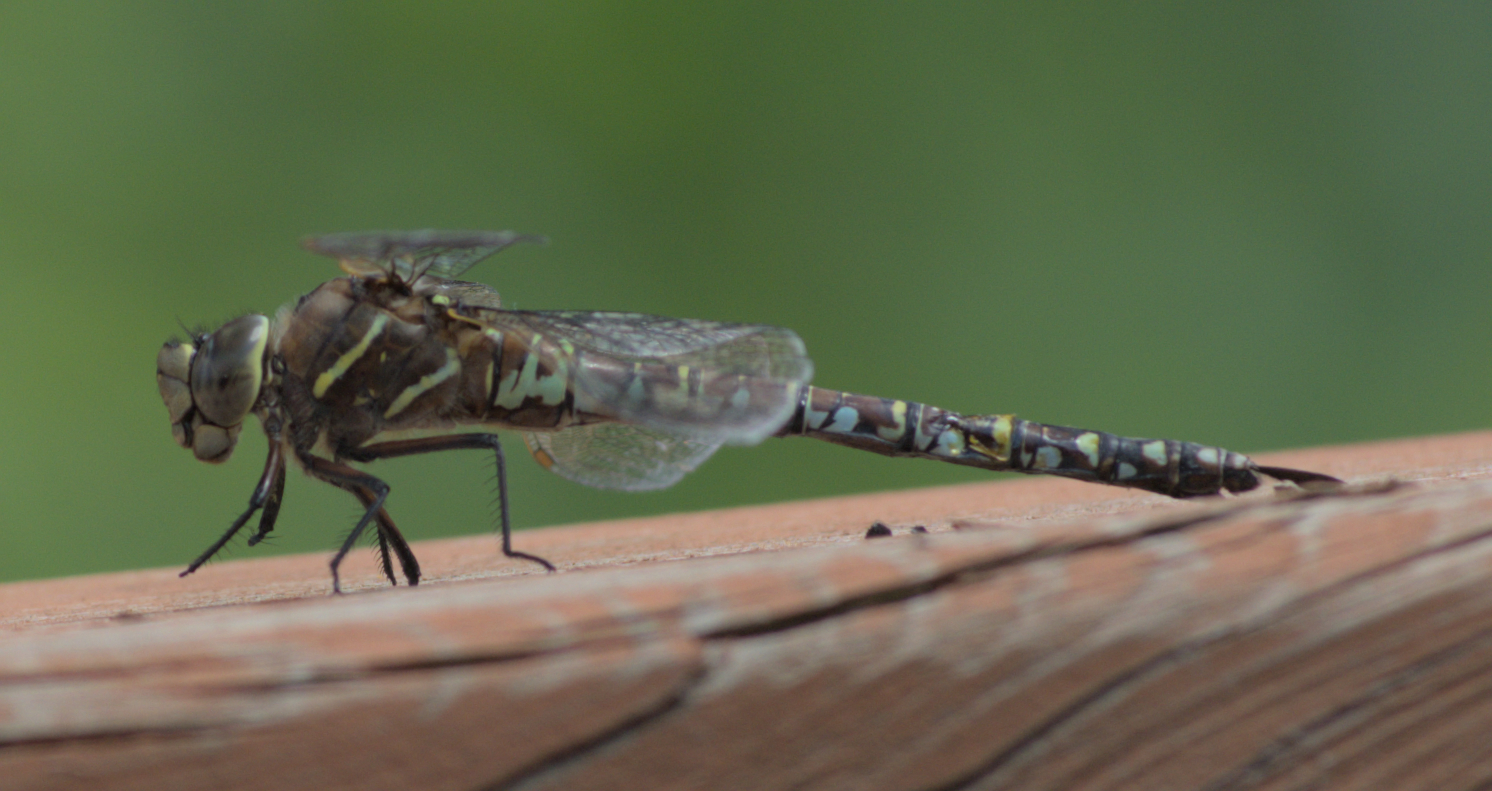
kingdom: Animalia
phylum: Arthropoda
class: Insecta
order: Odonata
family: Aeshnidae
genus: Aeshna
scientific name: Aeshna interrupta
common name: Variable darner
